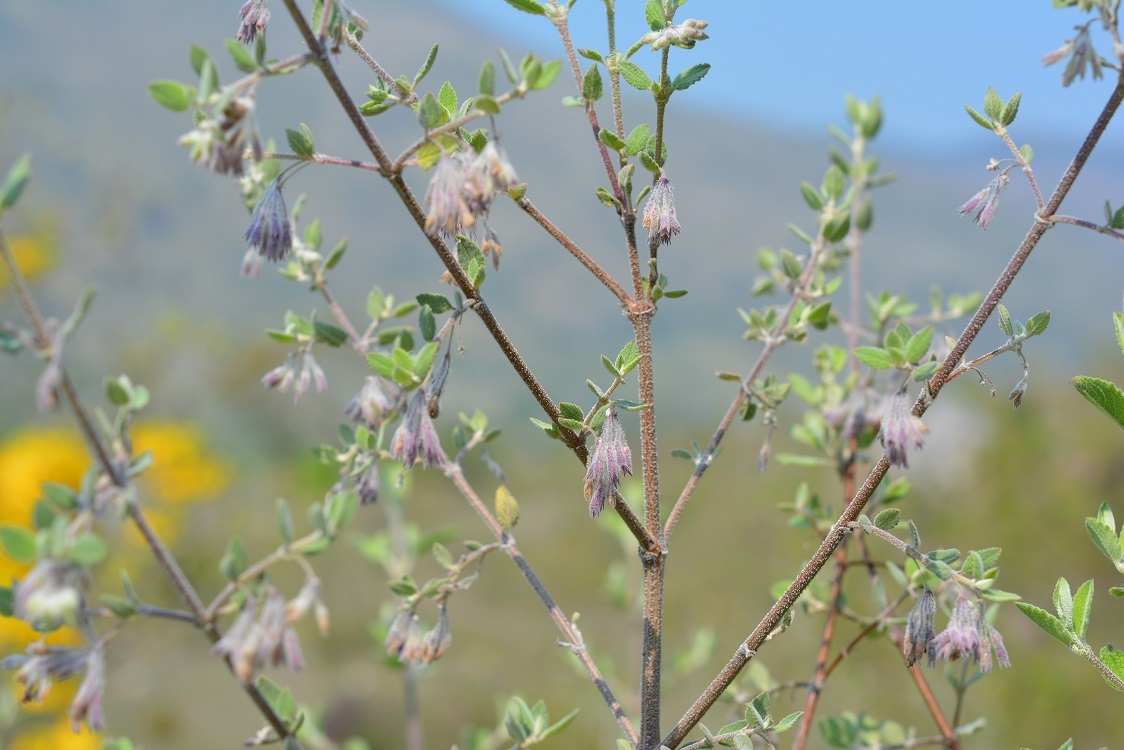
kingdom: Plantae
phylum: Tracheophyta
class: Magnoliopsida
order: Lamiales
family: Lamiaceae
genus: Condea
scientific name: Condea tomentosa
